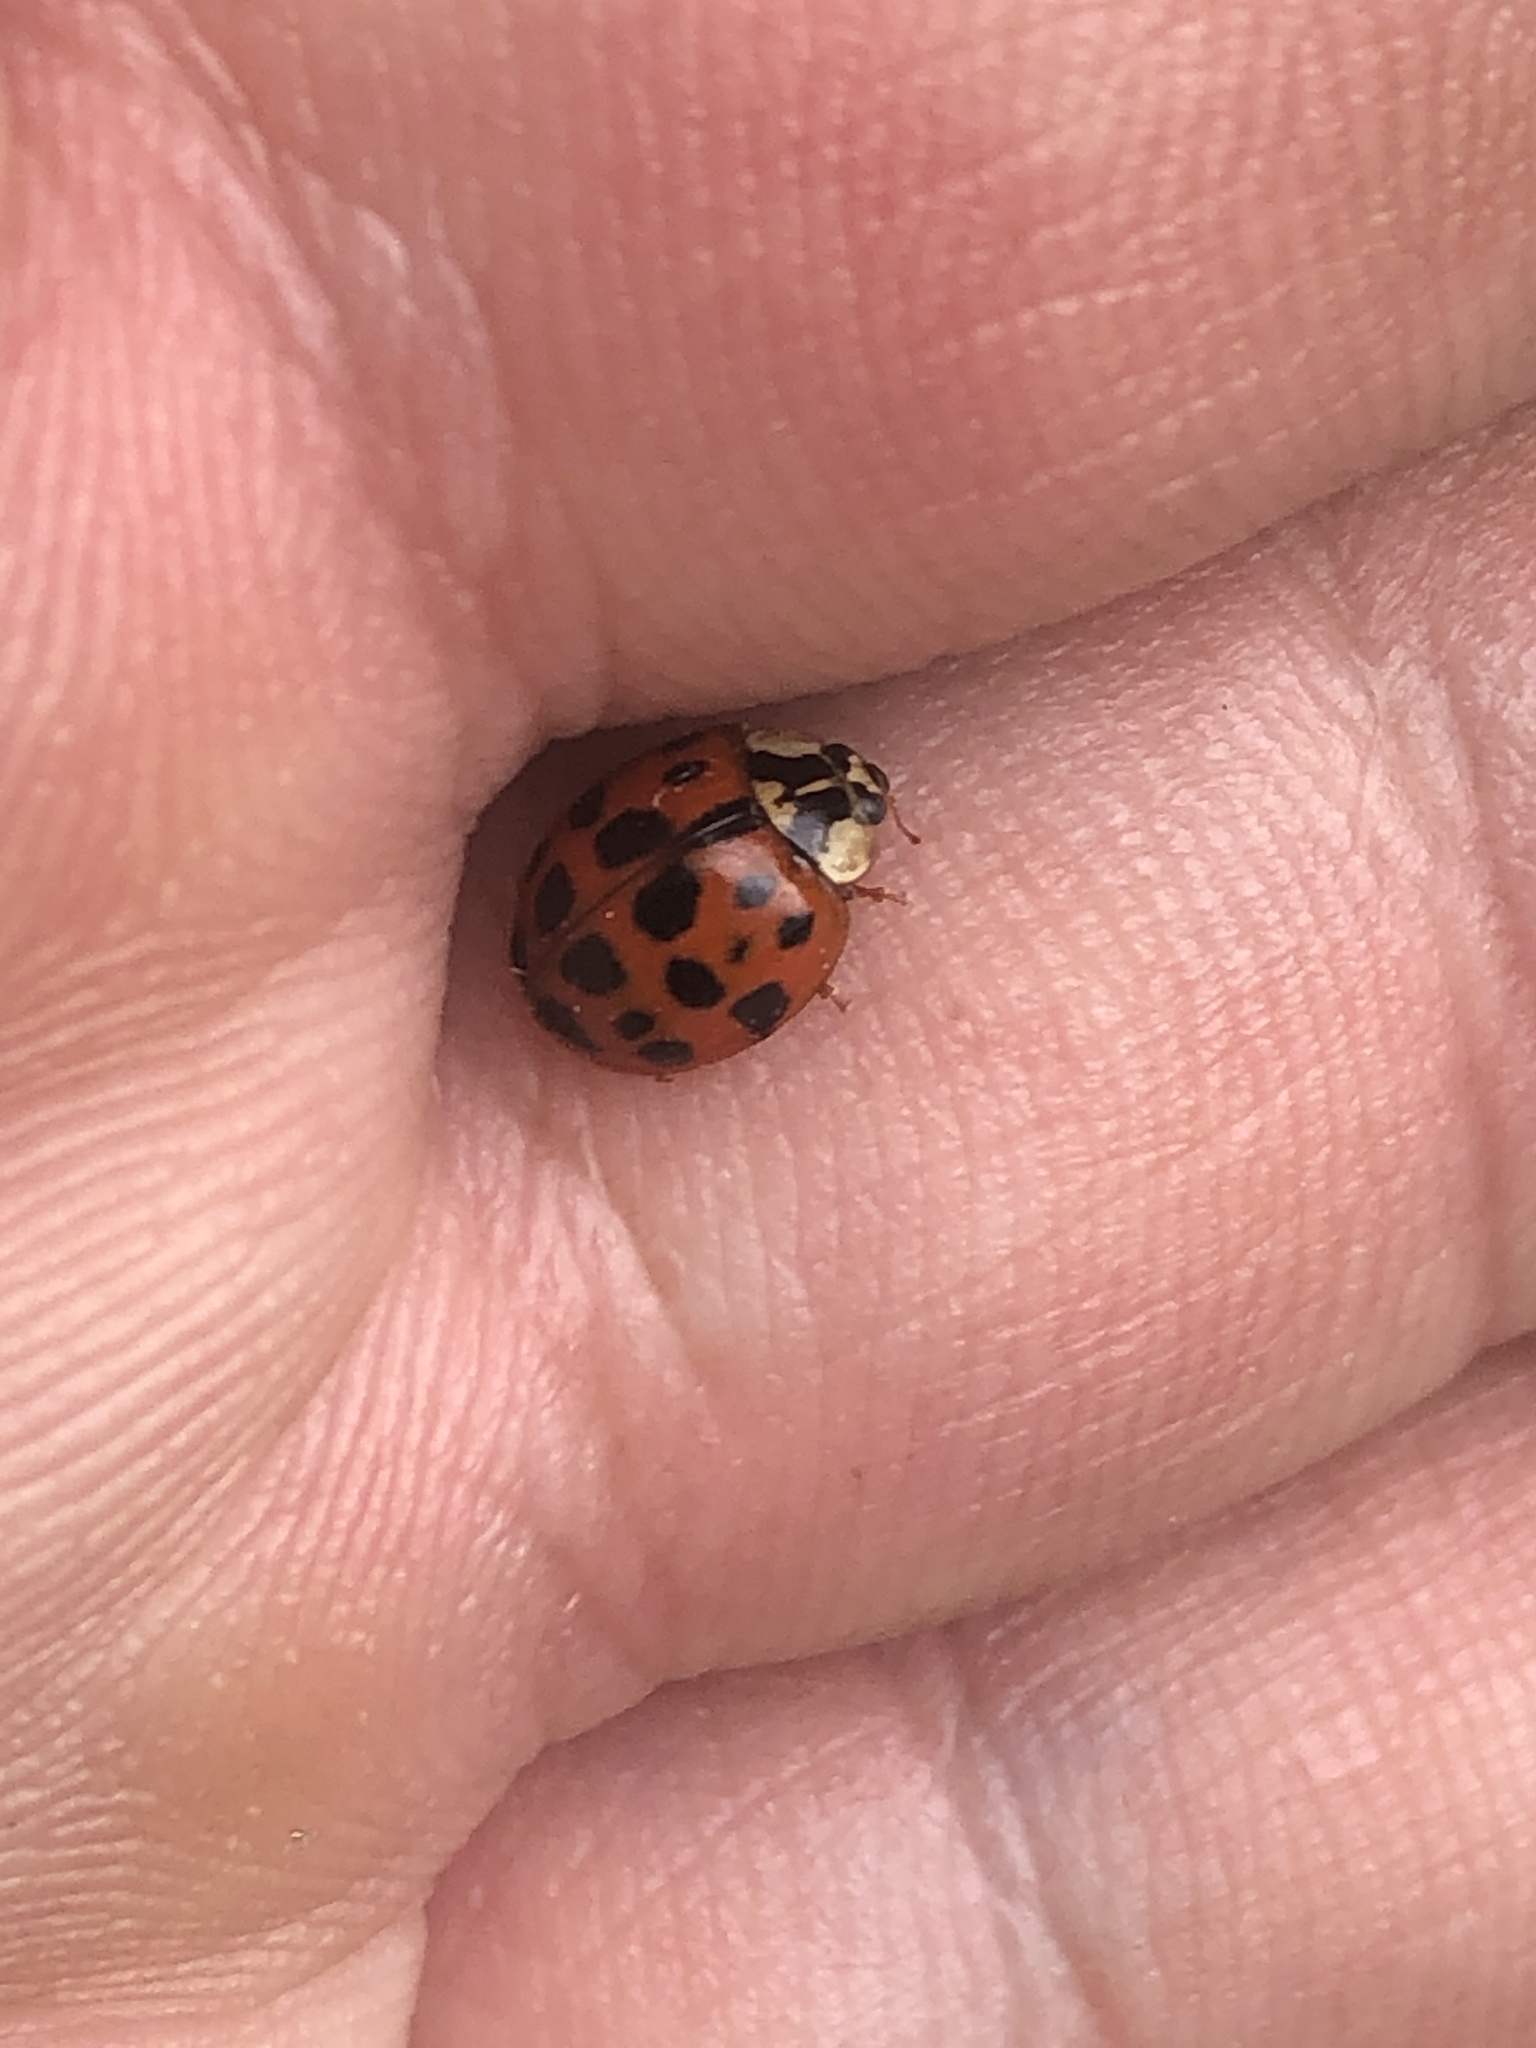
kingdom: Animalia
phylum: Arthropoda
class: Insecta
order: Coleoptera
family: Coccinellidae
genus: Harmonia
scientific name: Harmonia axyridis
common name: Harlequin ladybird
